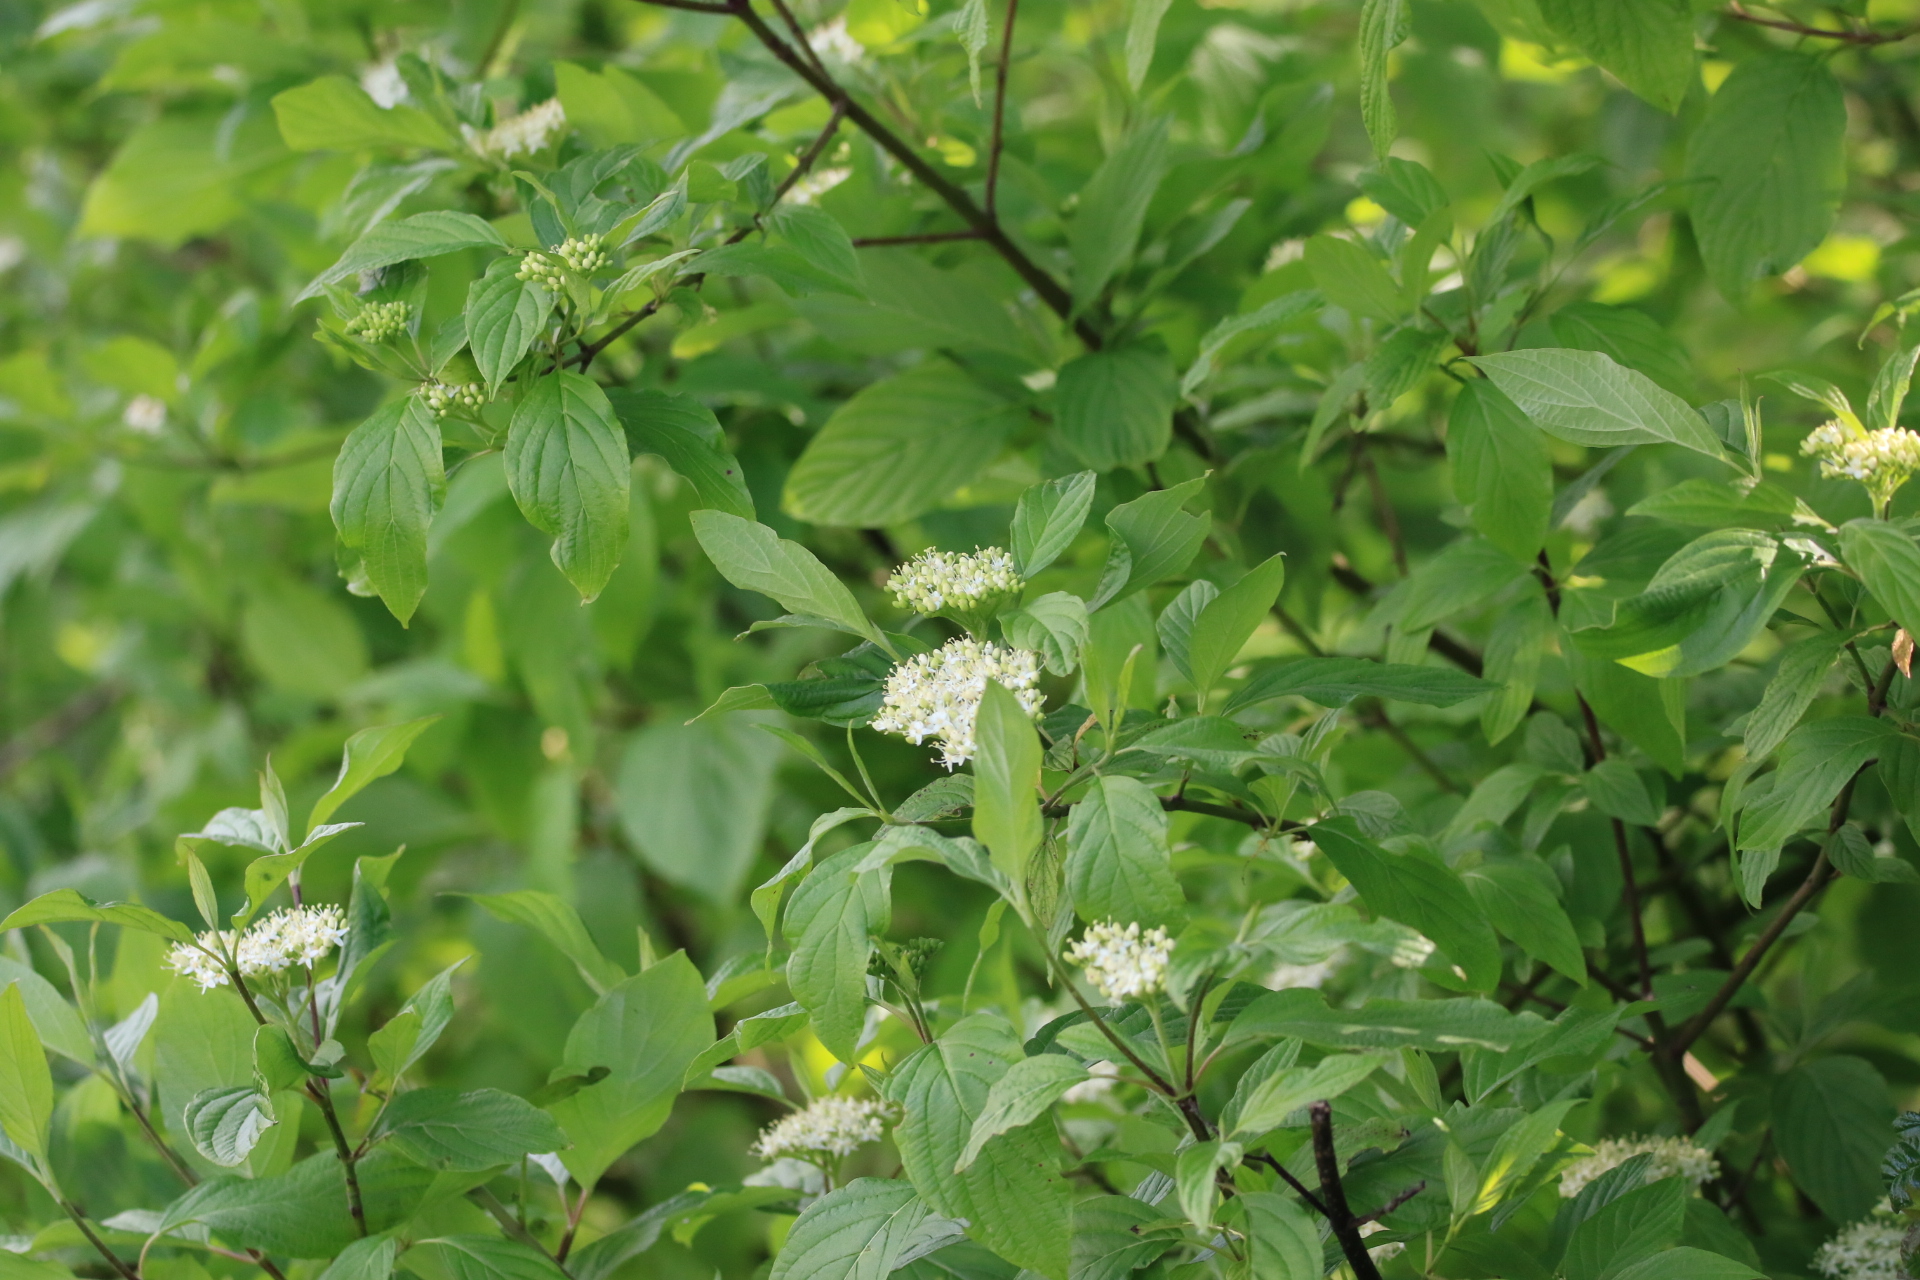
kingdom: Plantae
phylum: Tracheophyta
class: Magnoliopsida
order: Cornales
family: Cornaceae
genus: Cornus
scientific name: Cornus sericea
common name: Red-osier dogwood
